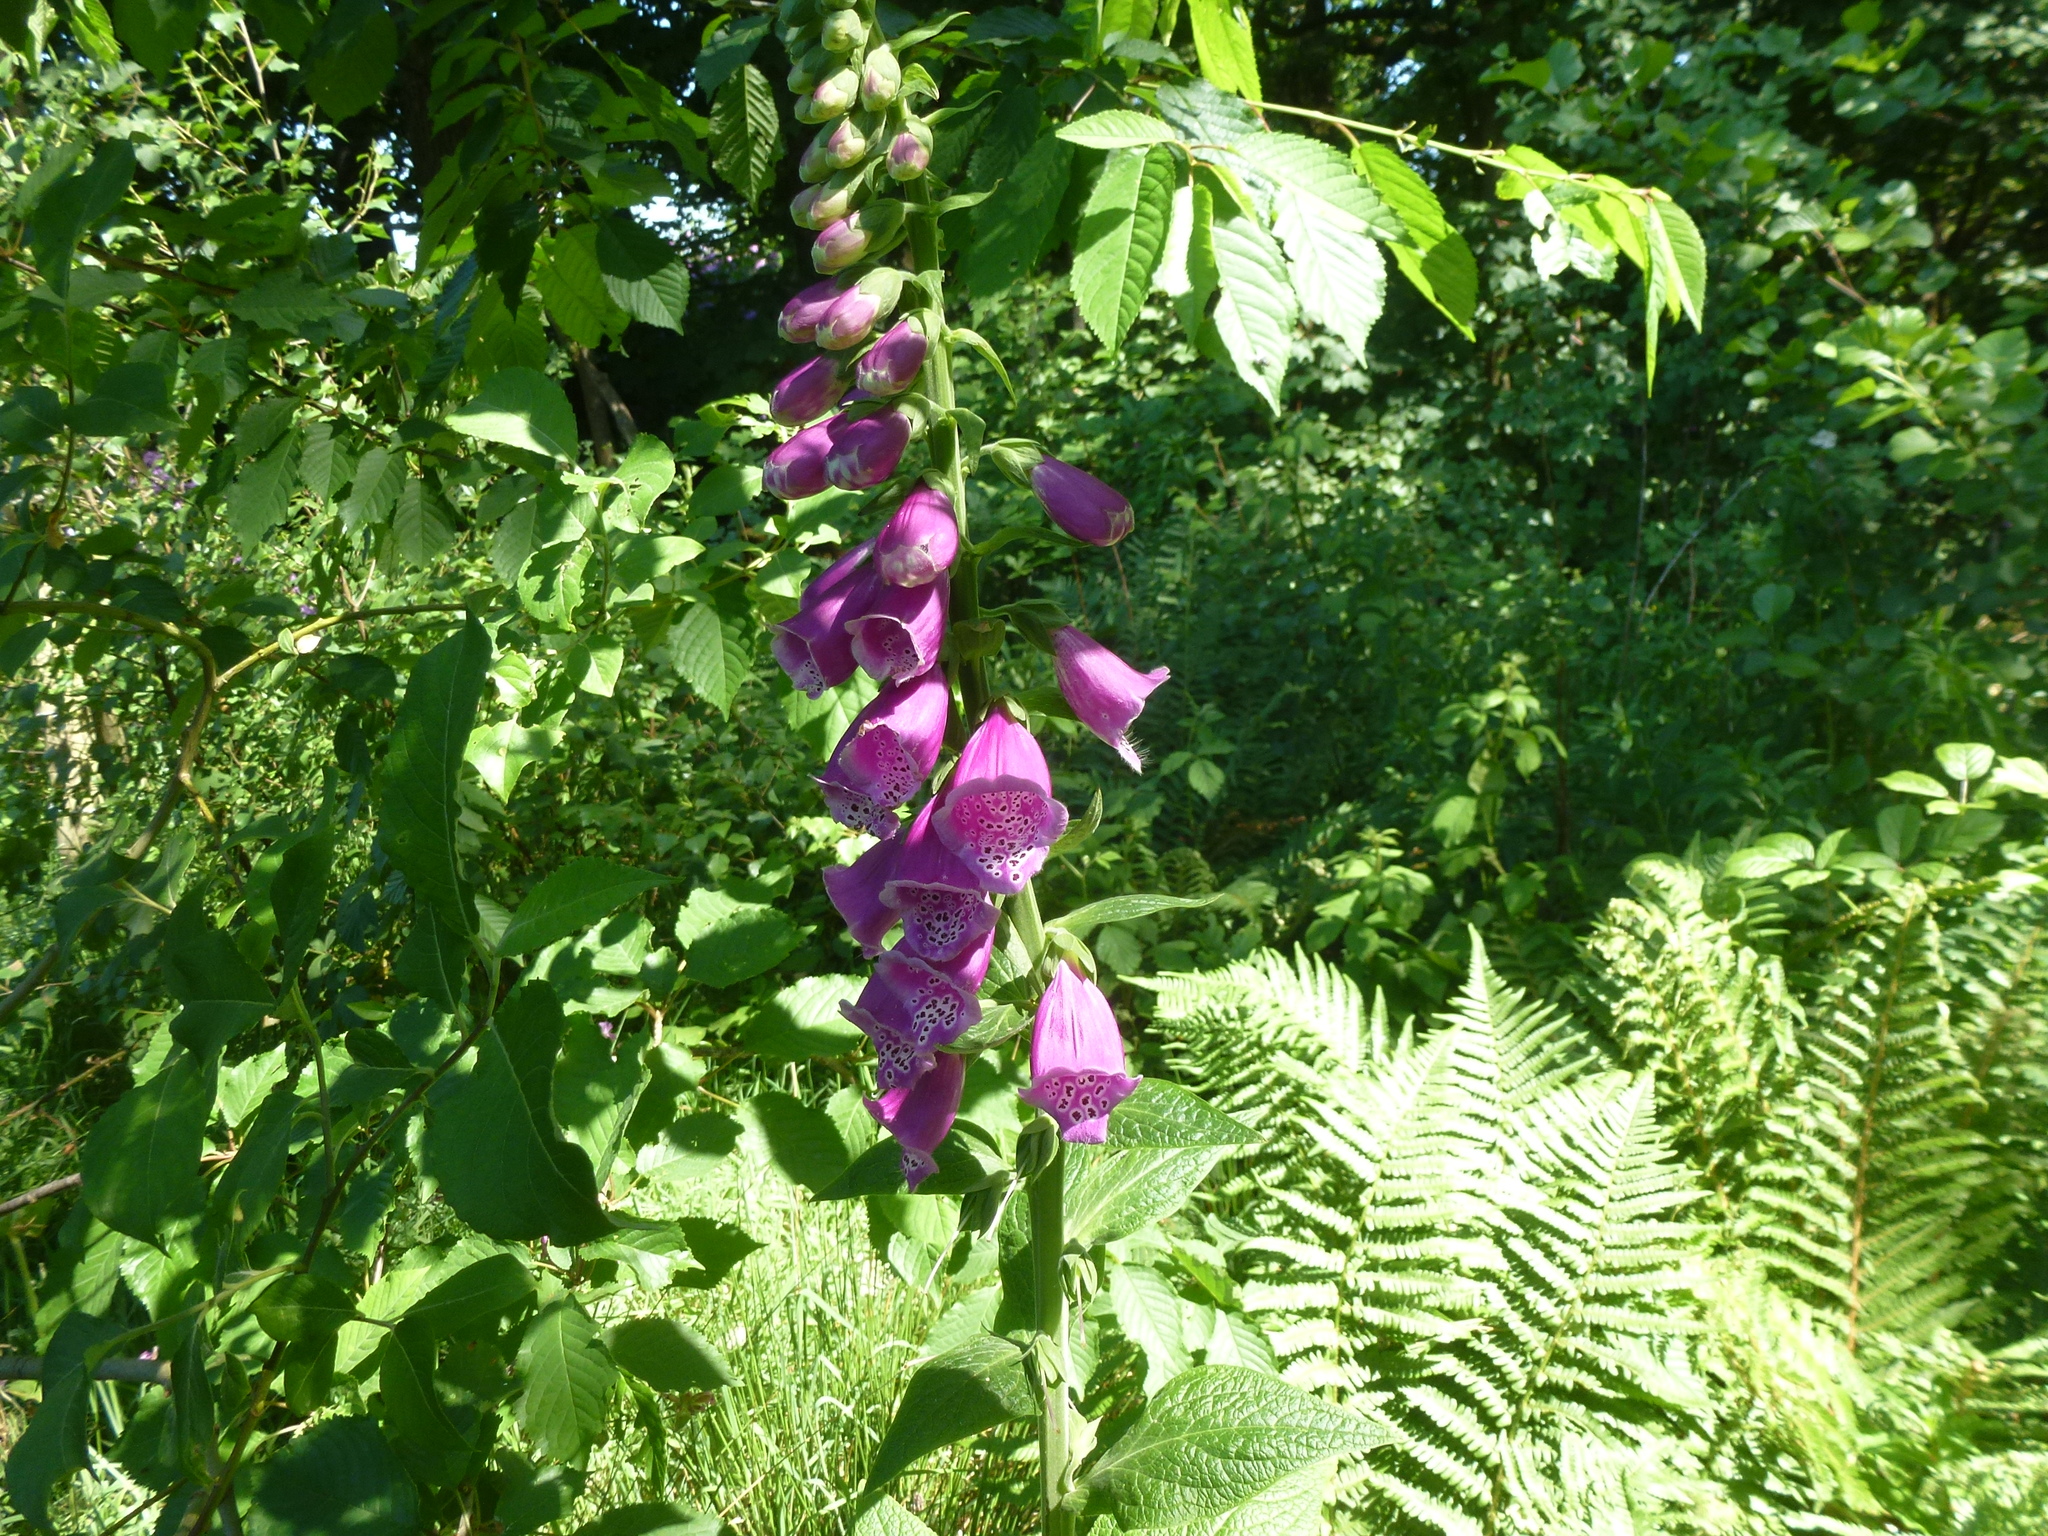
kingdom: Plantae
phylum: Tracheophyta
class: Magnoliopsida
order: Lamiales
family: Plantaginaceae
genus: Digitalis
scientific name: Digitalis purpurea
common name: Foxglove
